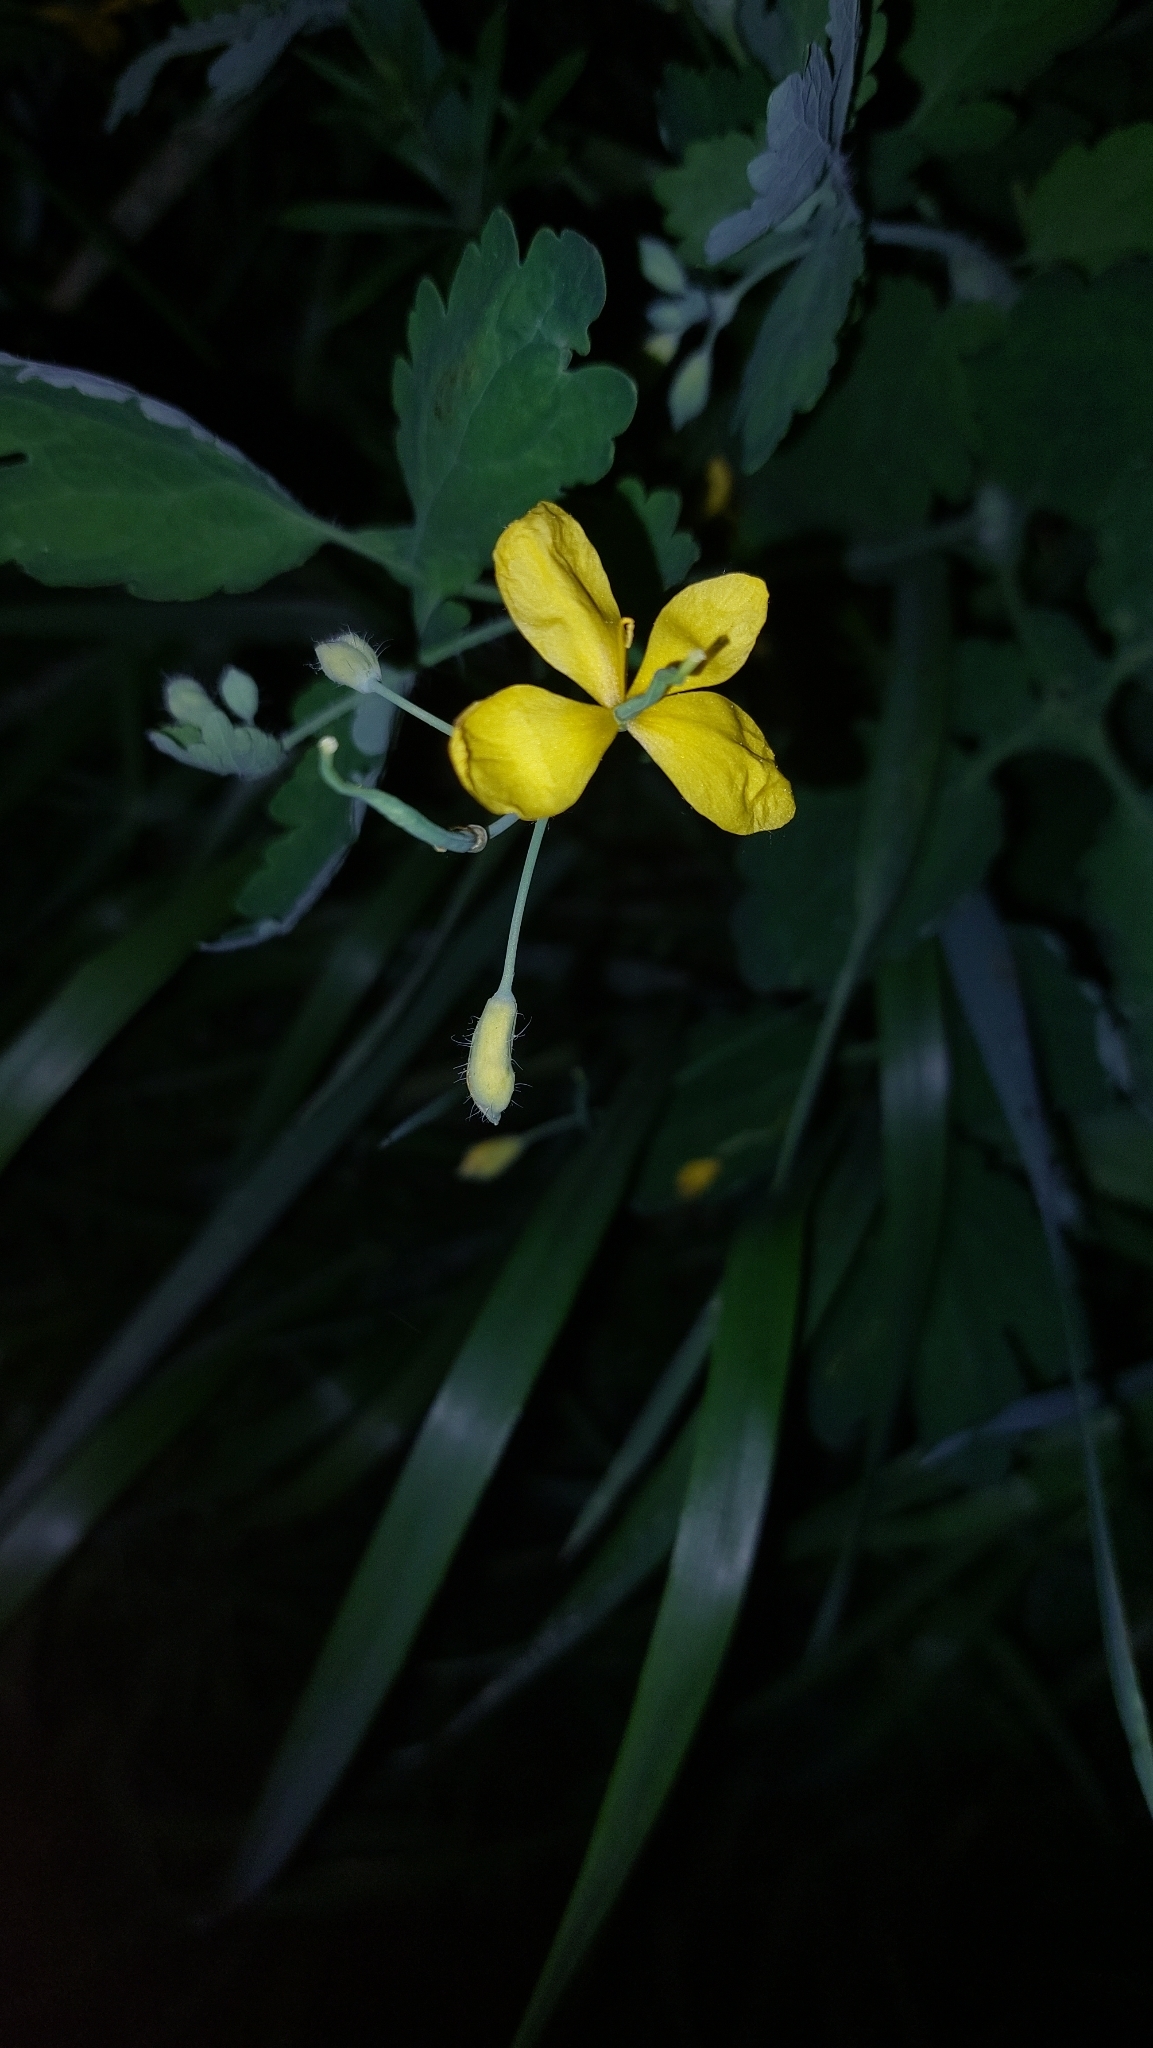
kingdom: Plantae
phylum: Tracheophyta
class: Magnoliopsida
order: Ranunculales
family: Papaveraceae
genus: Chelidonium
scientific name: Chelidonium majus
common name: Greater celandine
